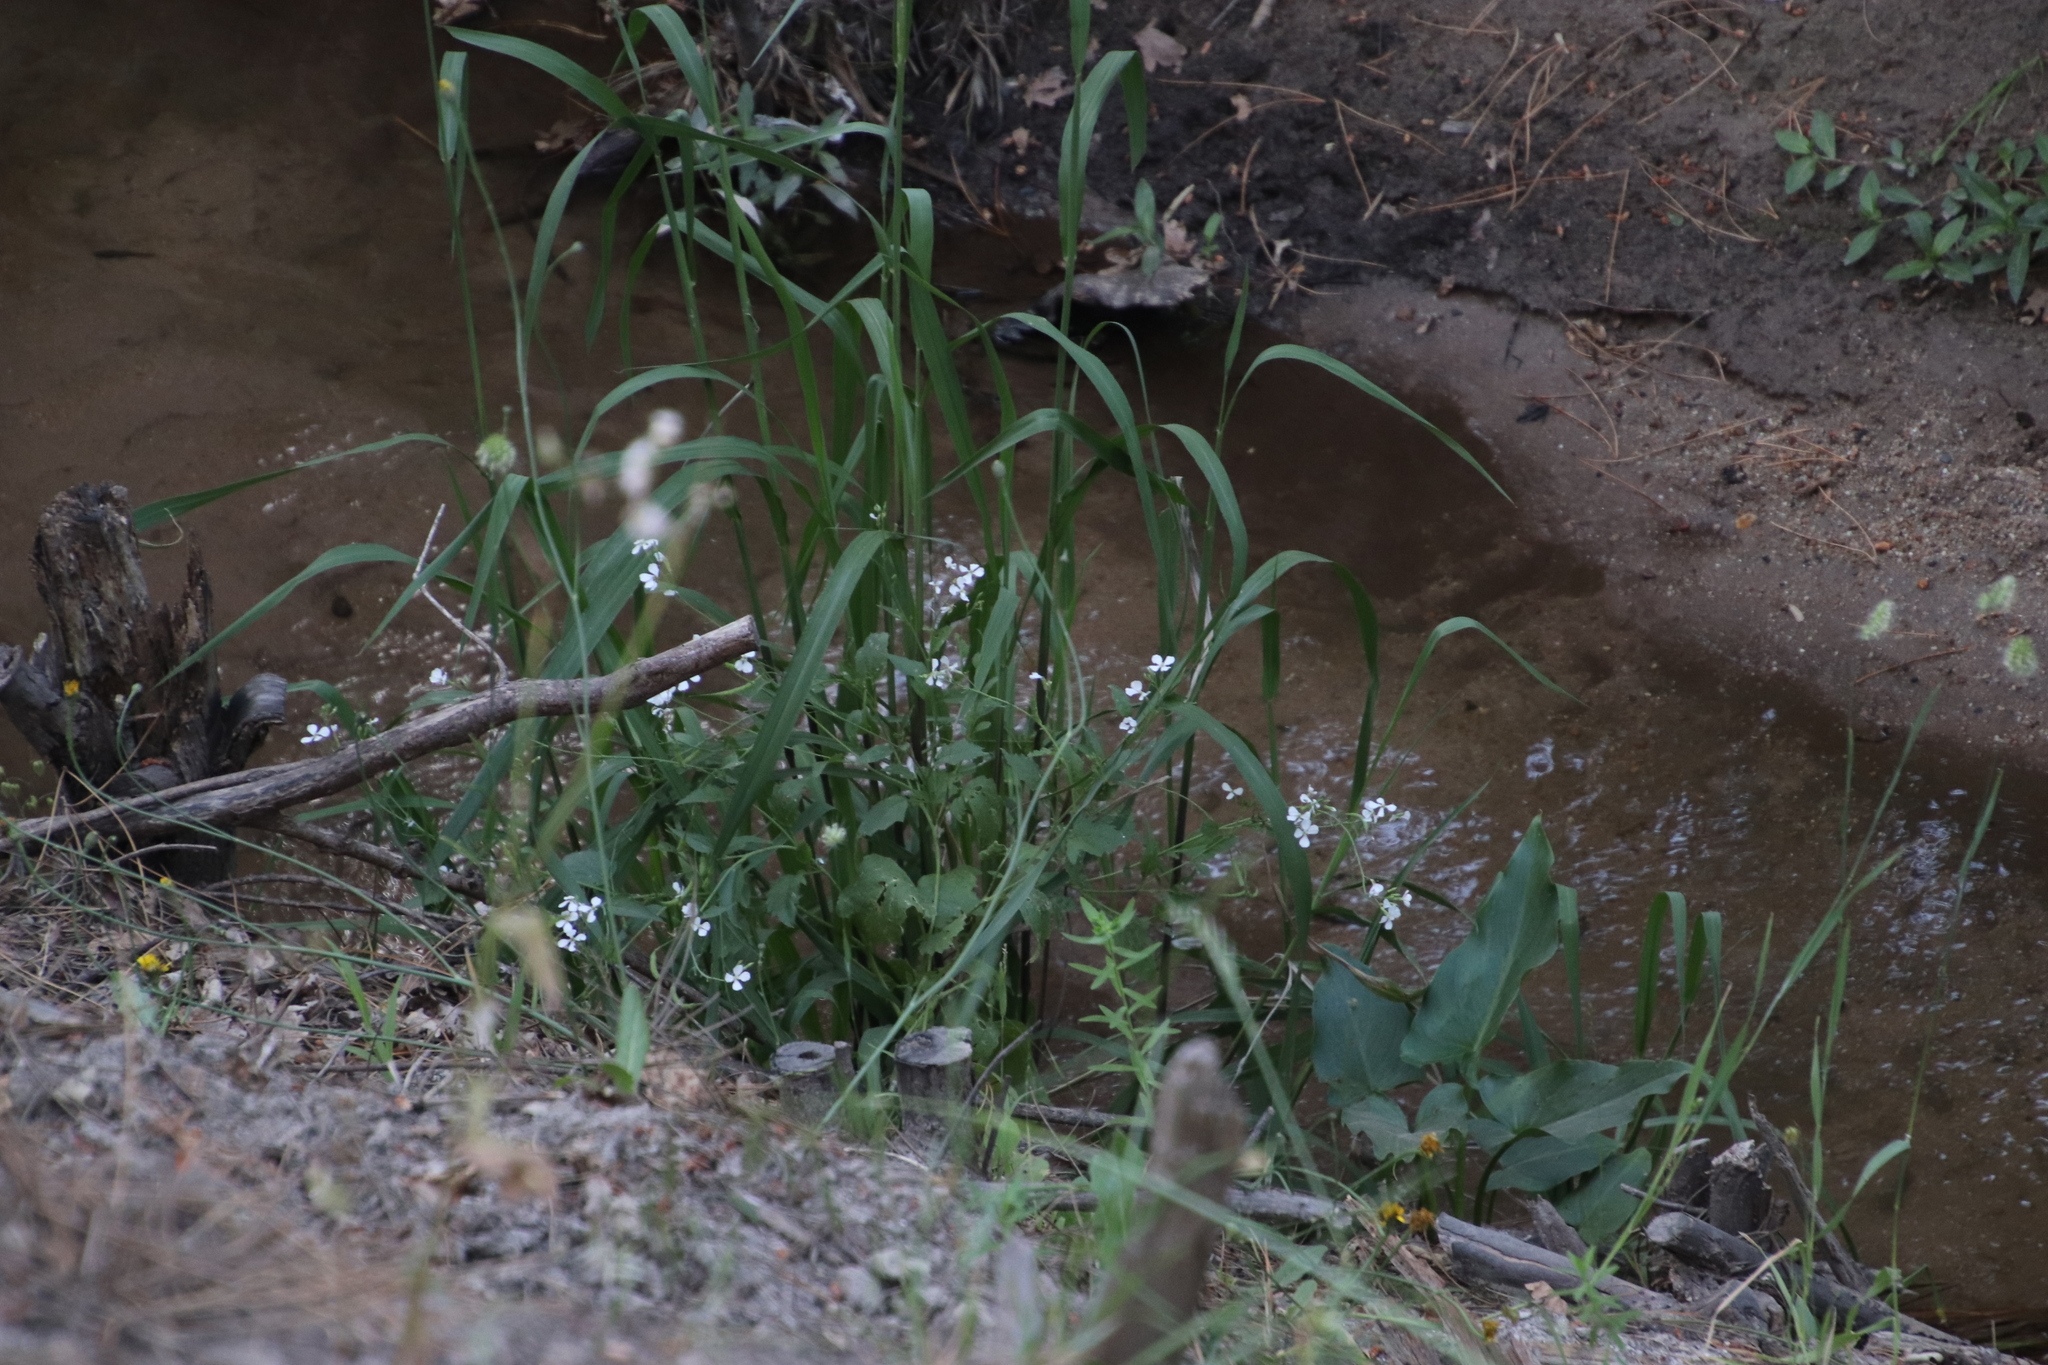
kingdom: Plantae
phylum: Tracheophyta
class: Magnoliopsida
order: Brassicales
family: Brassicaceae
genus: Raphanus
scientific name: Raphanus raphanistrum
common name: Wild radish
